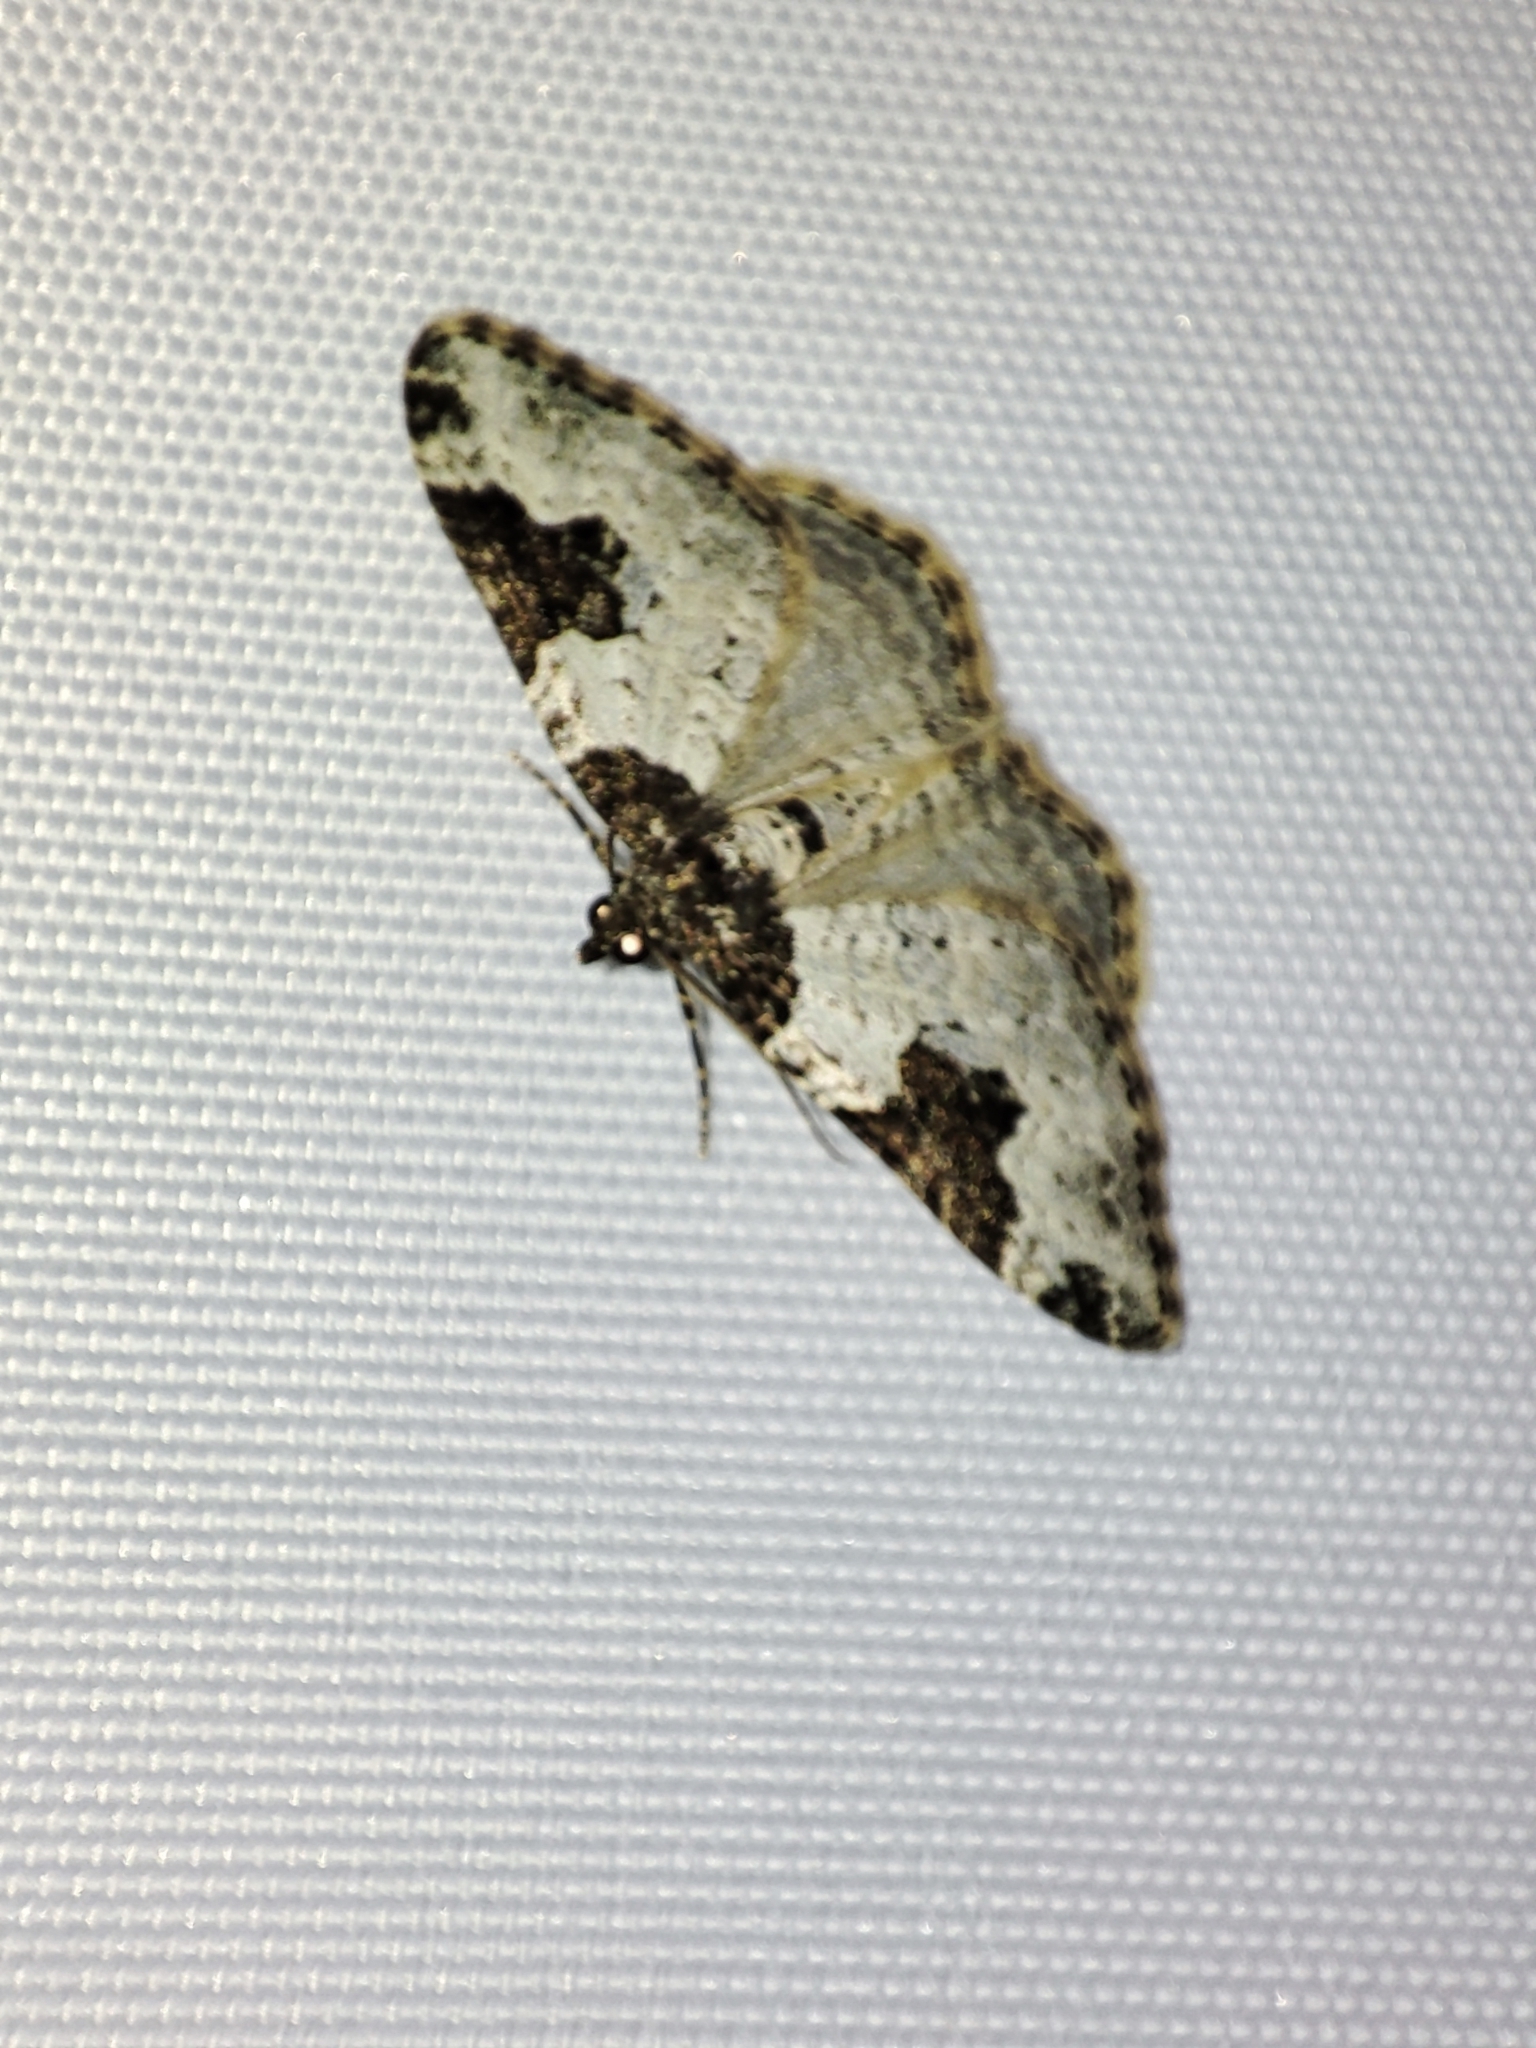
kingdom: Animalia
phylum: Arthropoda
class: Insecta
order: Lepidoptera
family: Geometridae
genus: Xanthorhoe
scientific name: Xanthorhoe fluctuata
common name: Garden carpet
